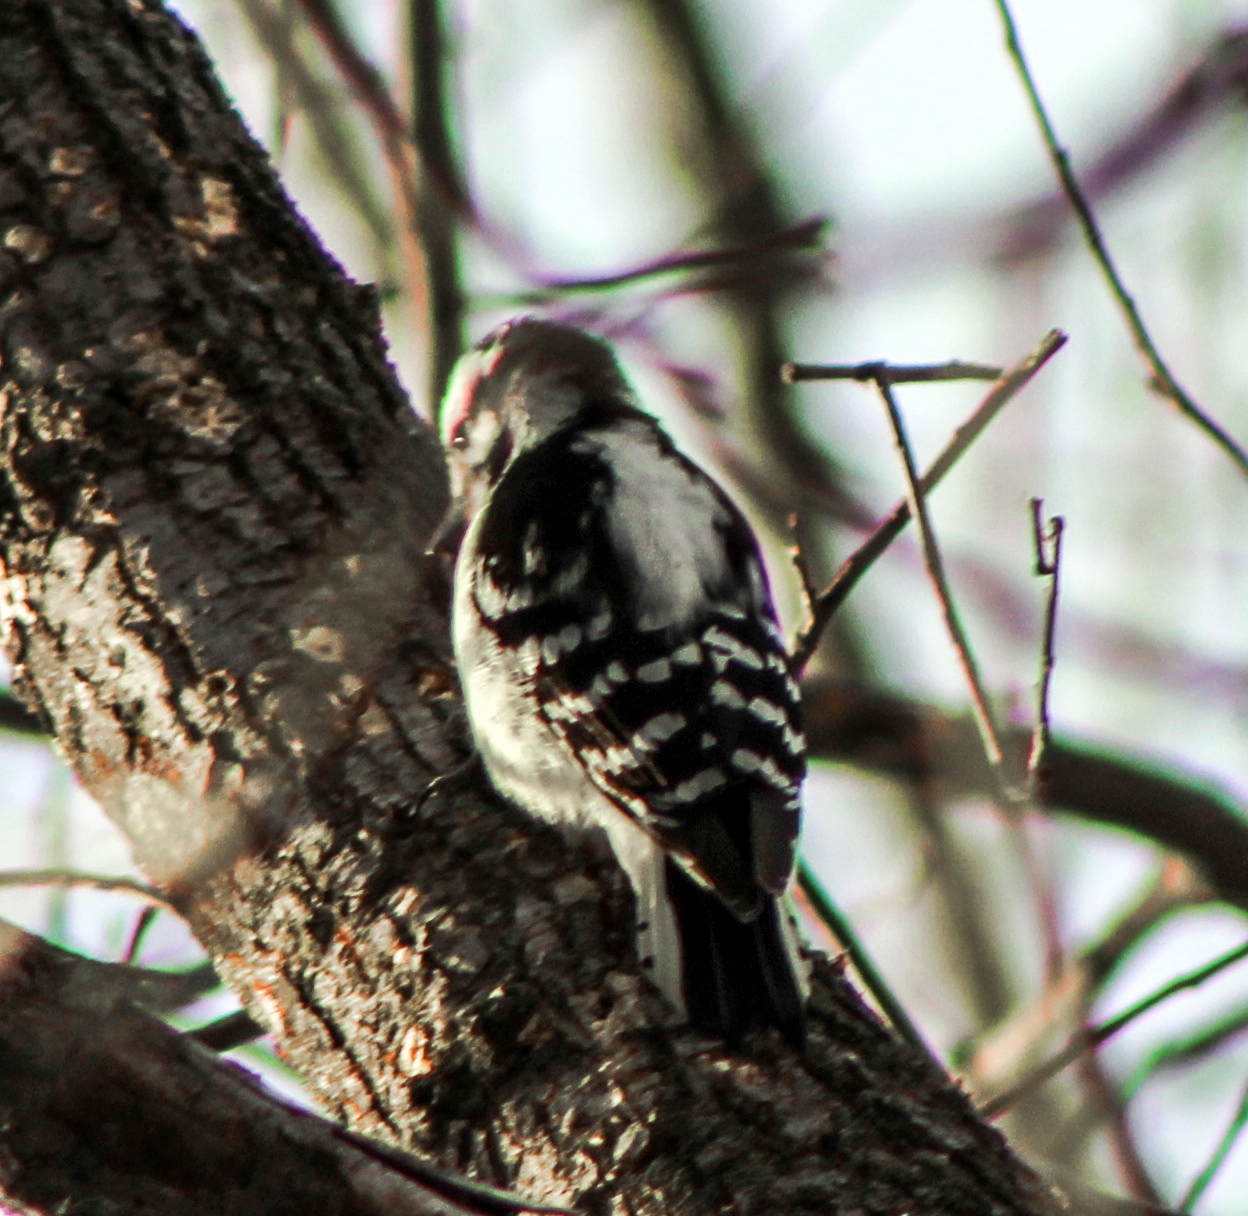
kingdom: Animalia
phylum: Chordata
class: Aves
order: Piciformes
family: Picidae
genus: Dryobates
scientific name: Dryobates pubescens
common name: Downy woodpecker
